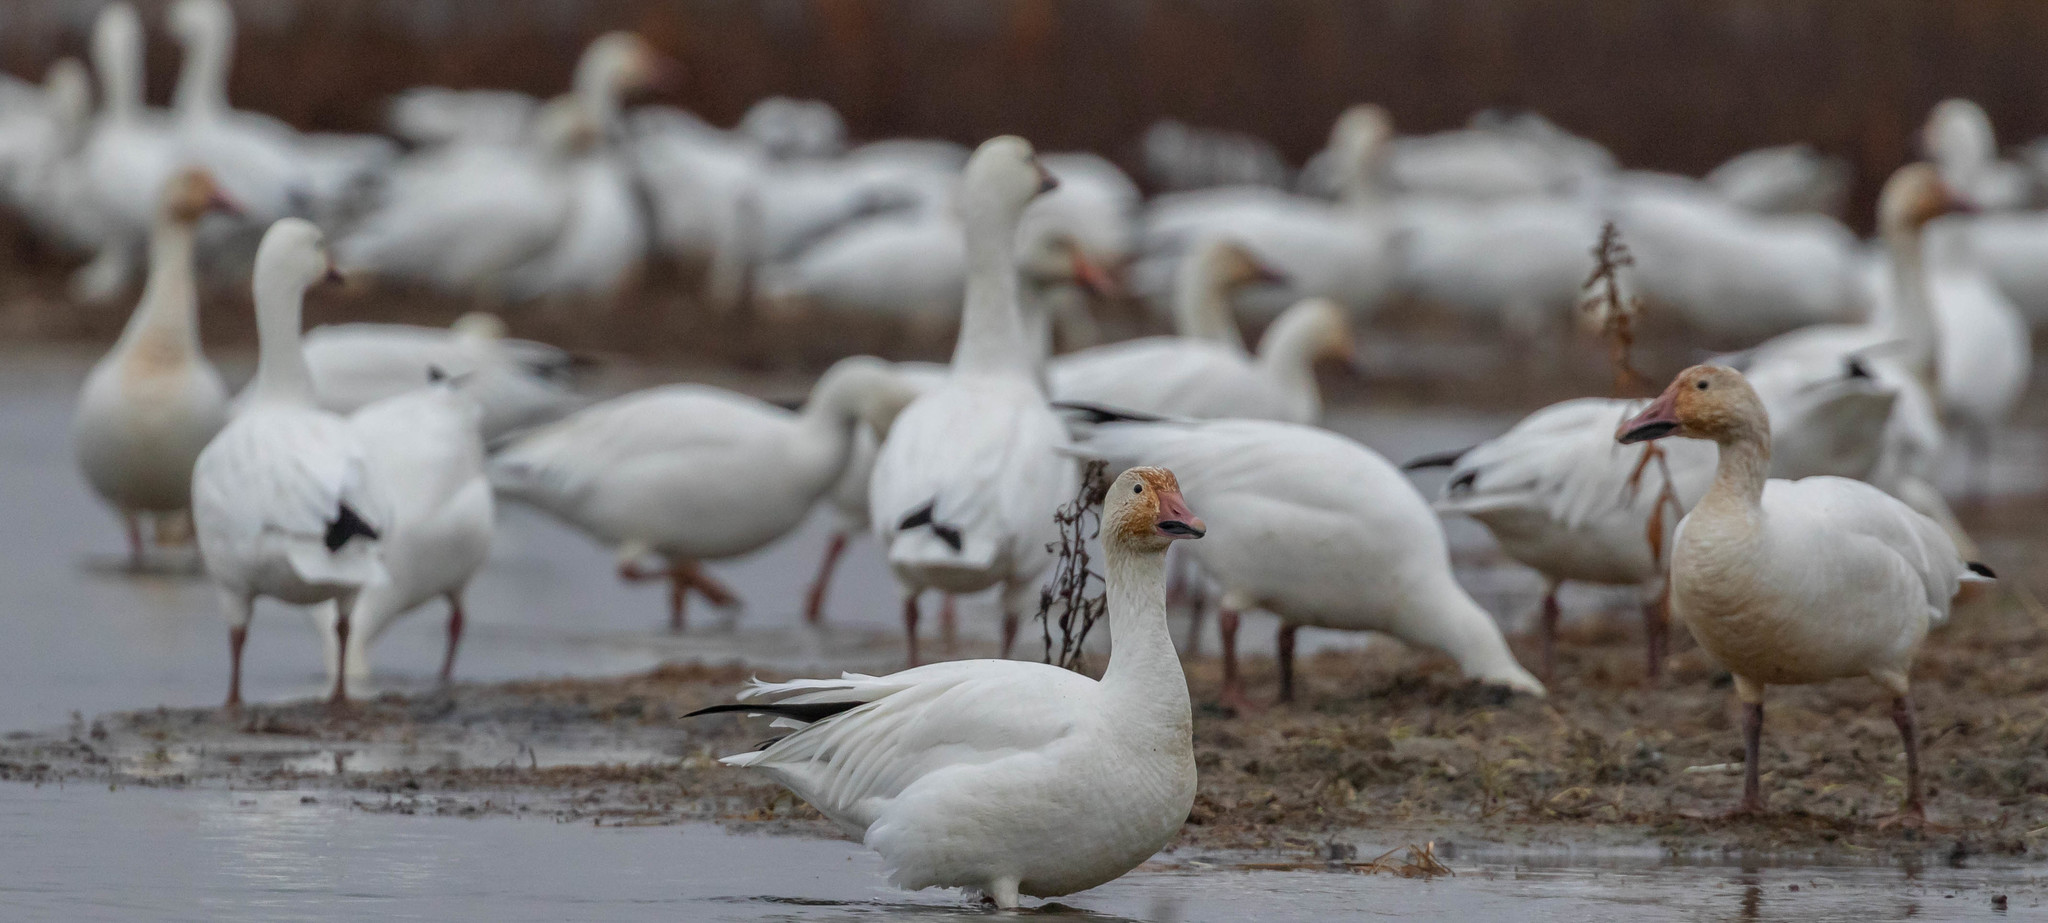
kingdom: Animalia
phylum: Chordata
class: Aves
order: Anseriformes
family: Anatidae
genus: Anser
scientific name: Anser caerulescens
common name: Snow goose
